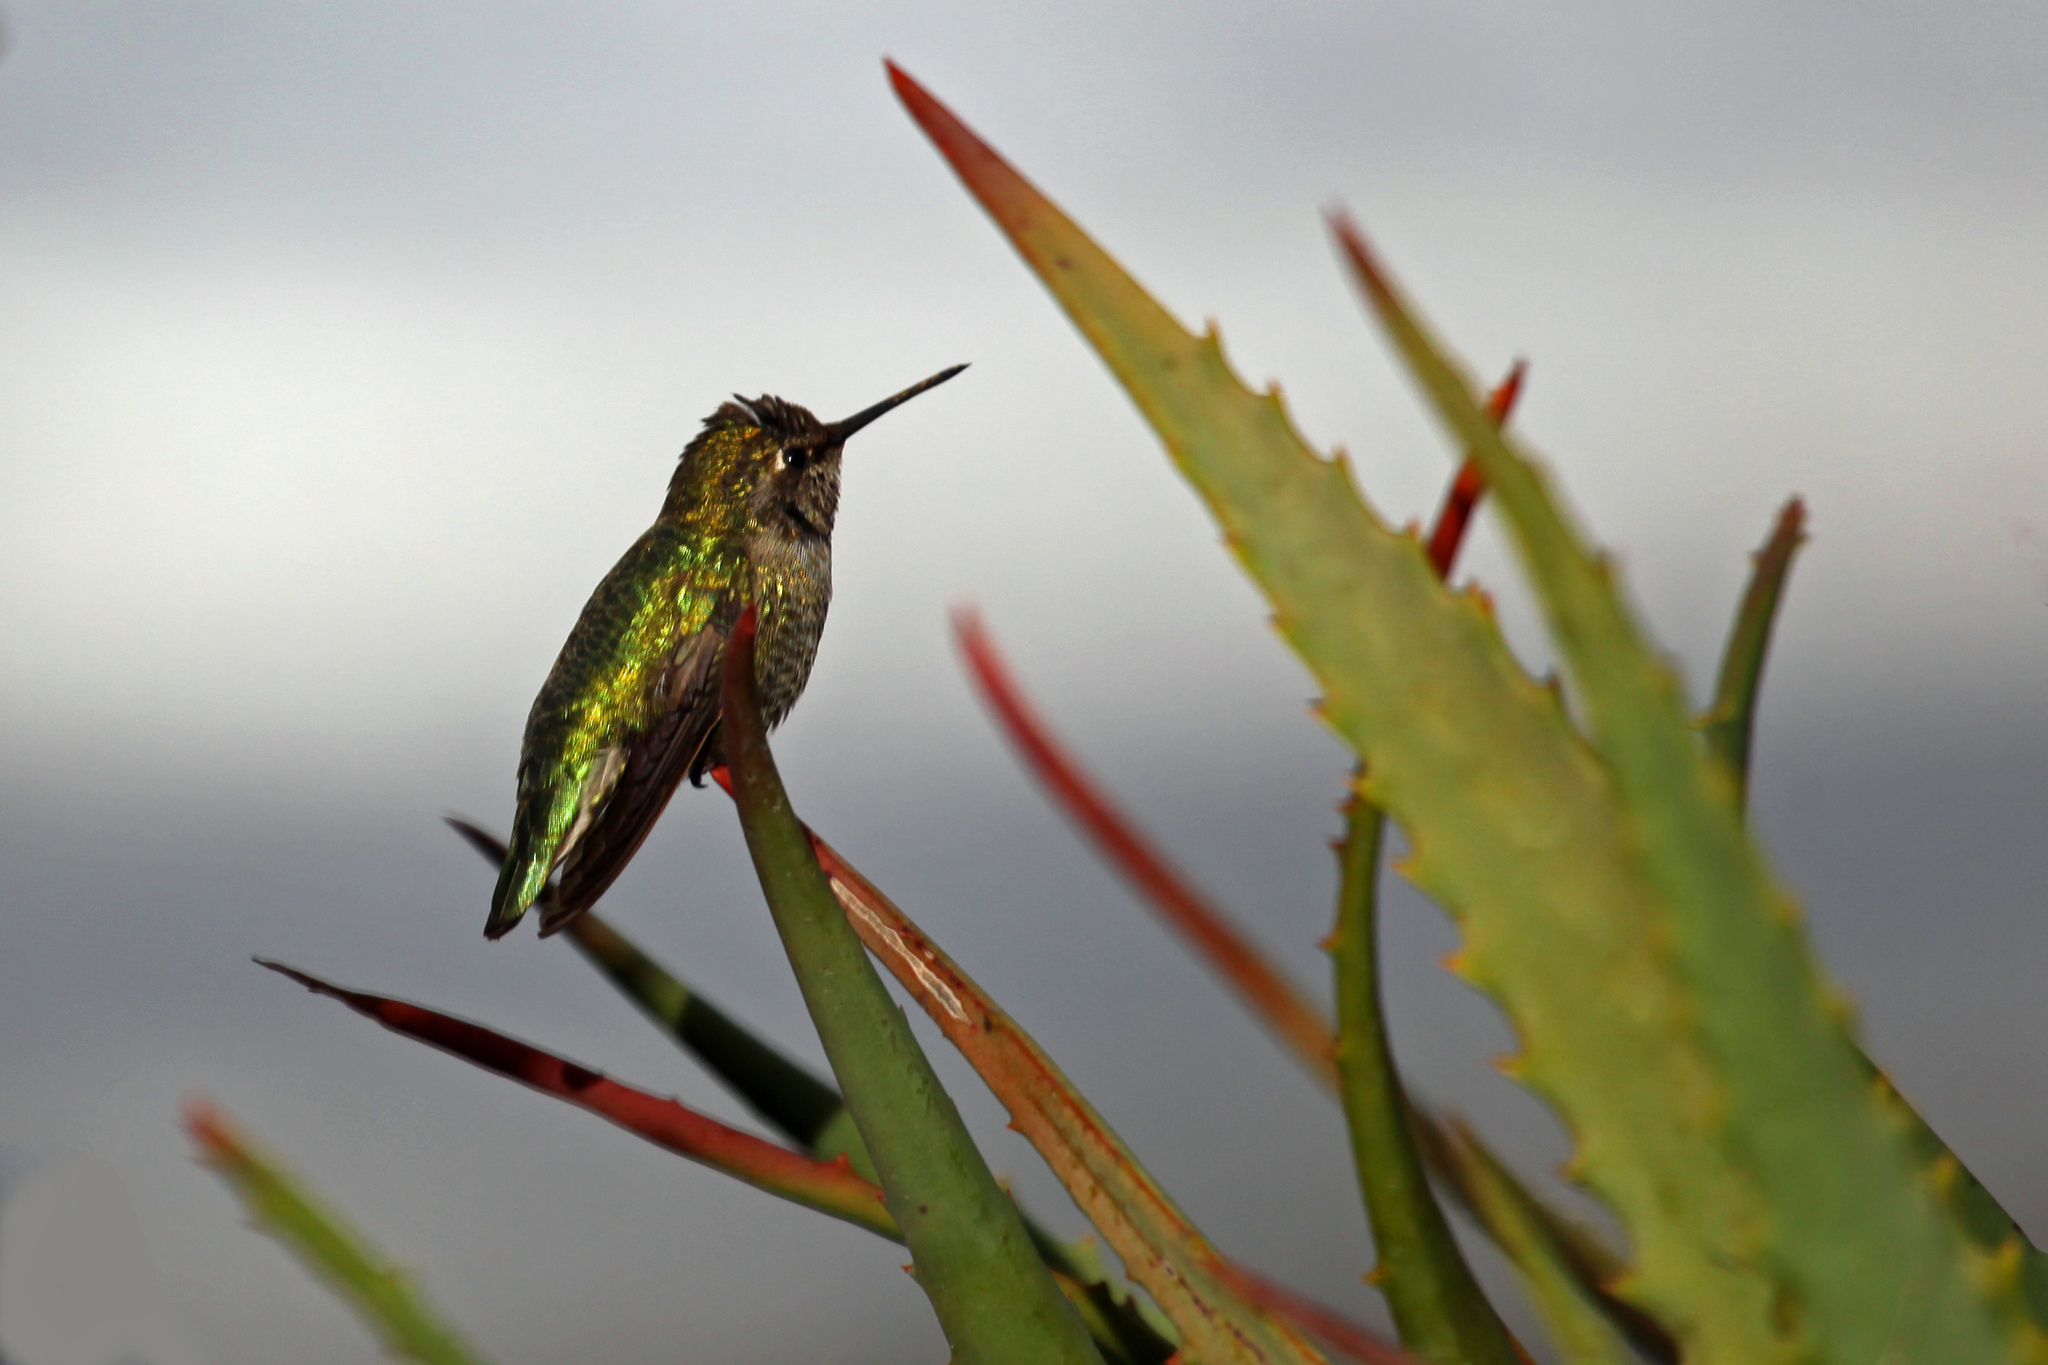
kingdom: Animalia
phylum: Chordata
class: Aves
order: Apodiformes
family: Trochilidae
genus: Calypte
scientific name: Calypte anna
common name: Anna's hummingbird
